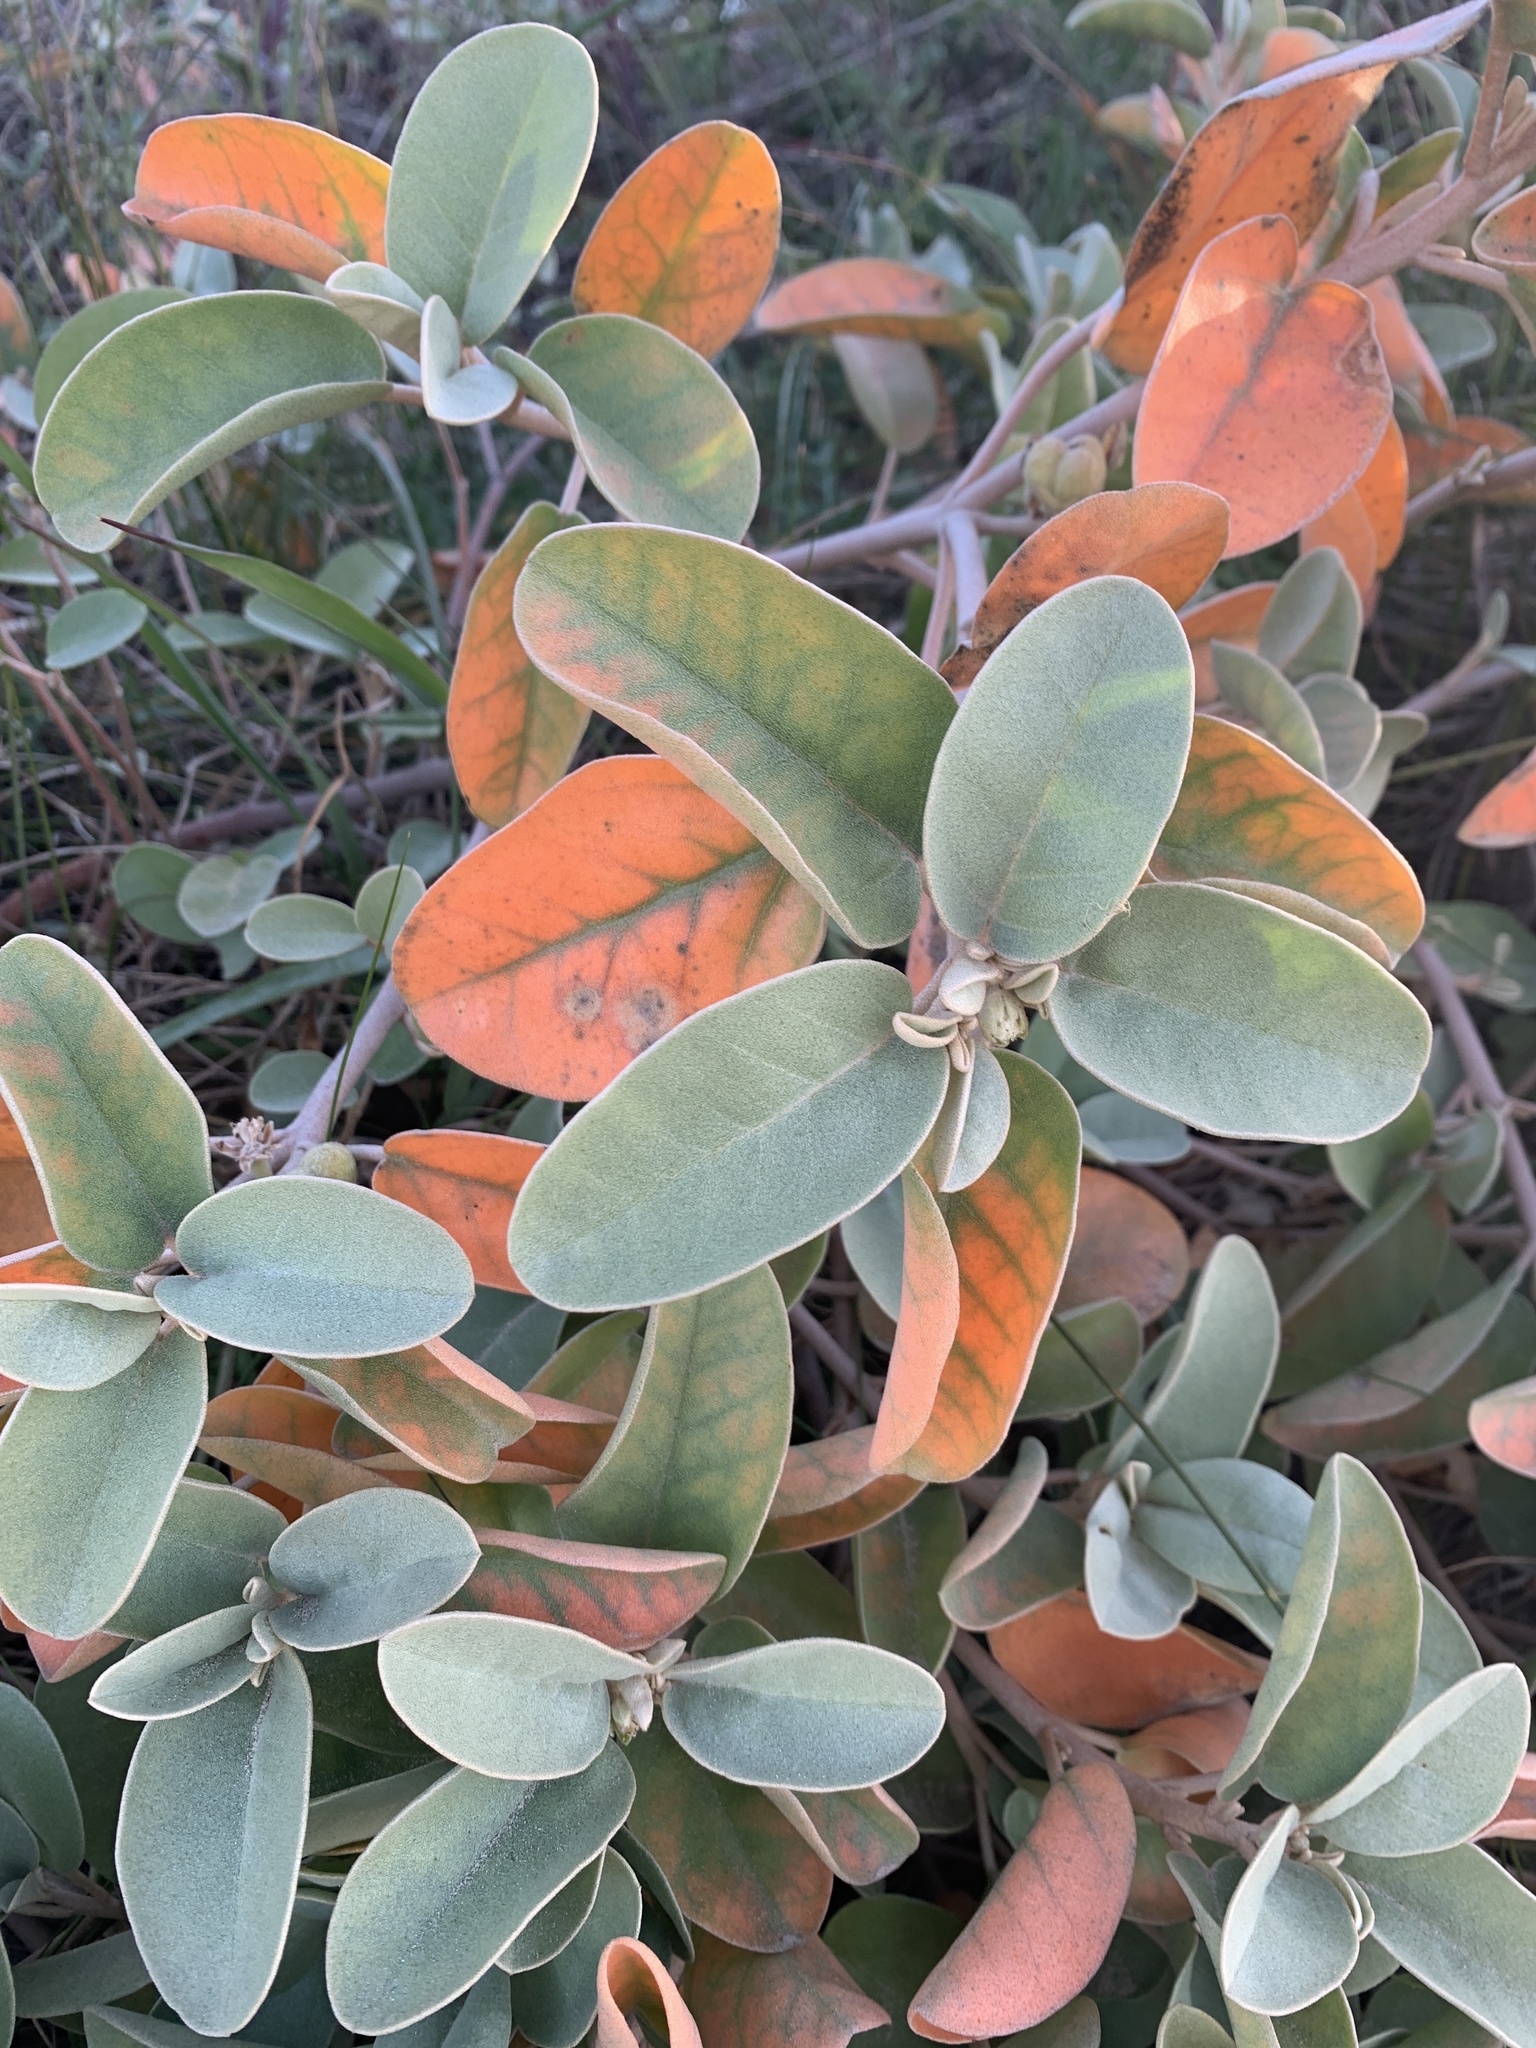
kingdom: Plantae
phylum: Tracheophyta
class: Magnoliopsida
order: Malpighiales
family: Euphorbiaceae
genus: Croton
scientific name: Croton punctatus
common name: Beach-tea
